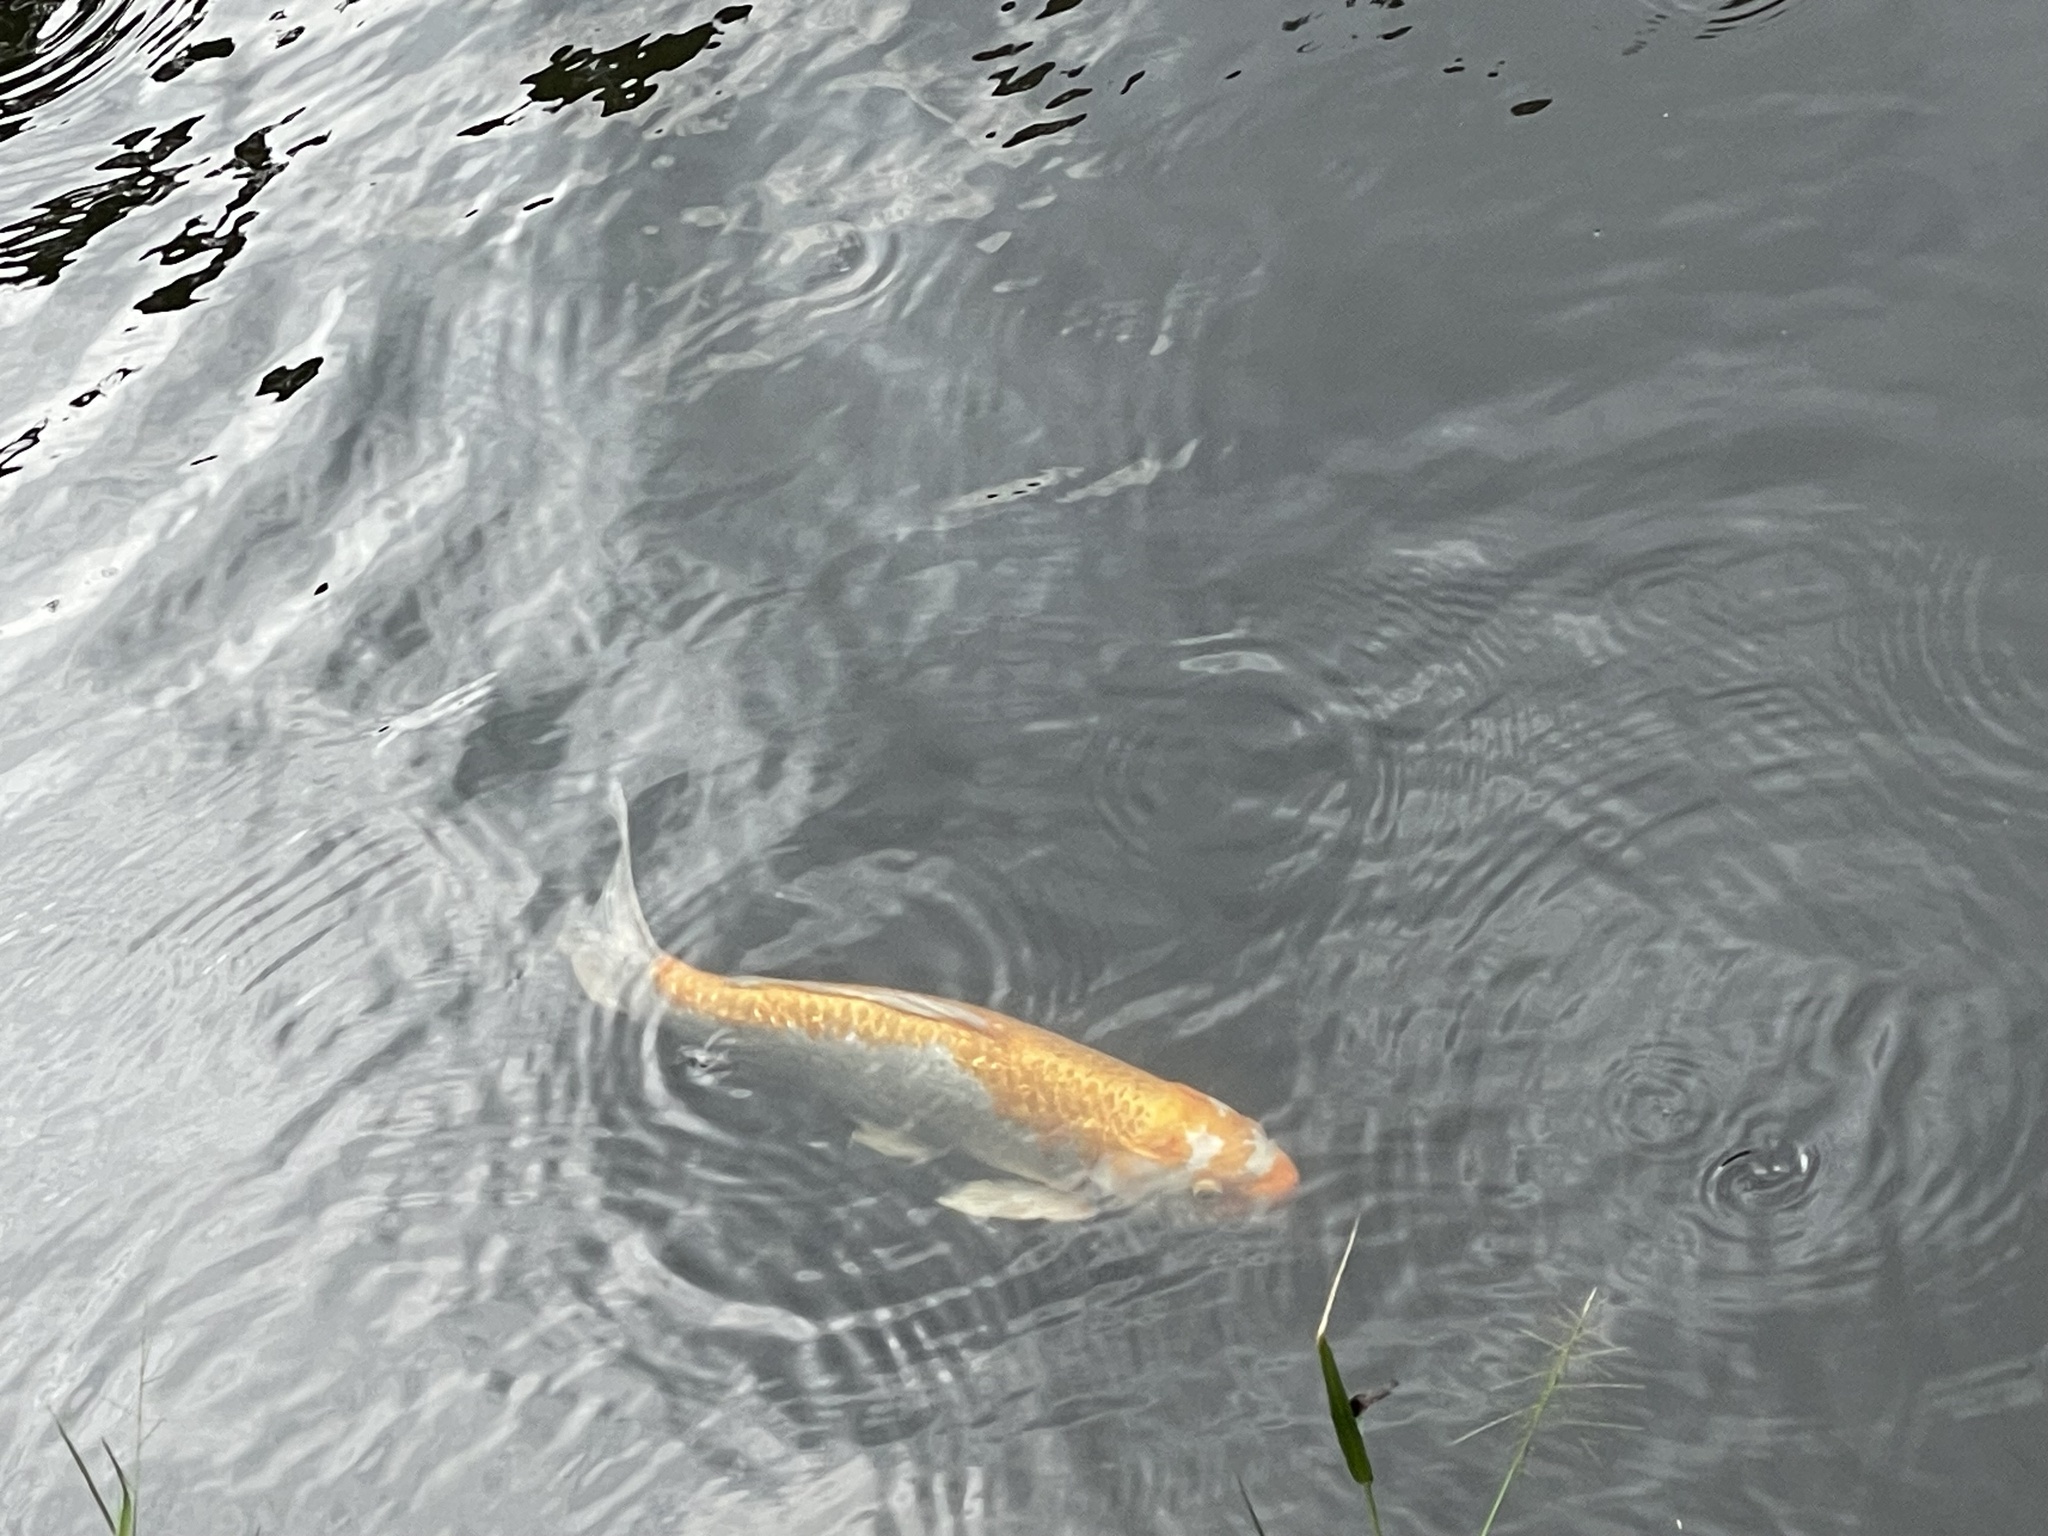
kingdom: Animalia
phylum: Chordata
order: Cypriniformes
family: Cyprinidae
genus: Cyprinus
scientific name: Cyprinus rubrofuscus
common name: Koi
